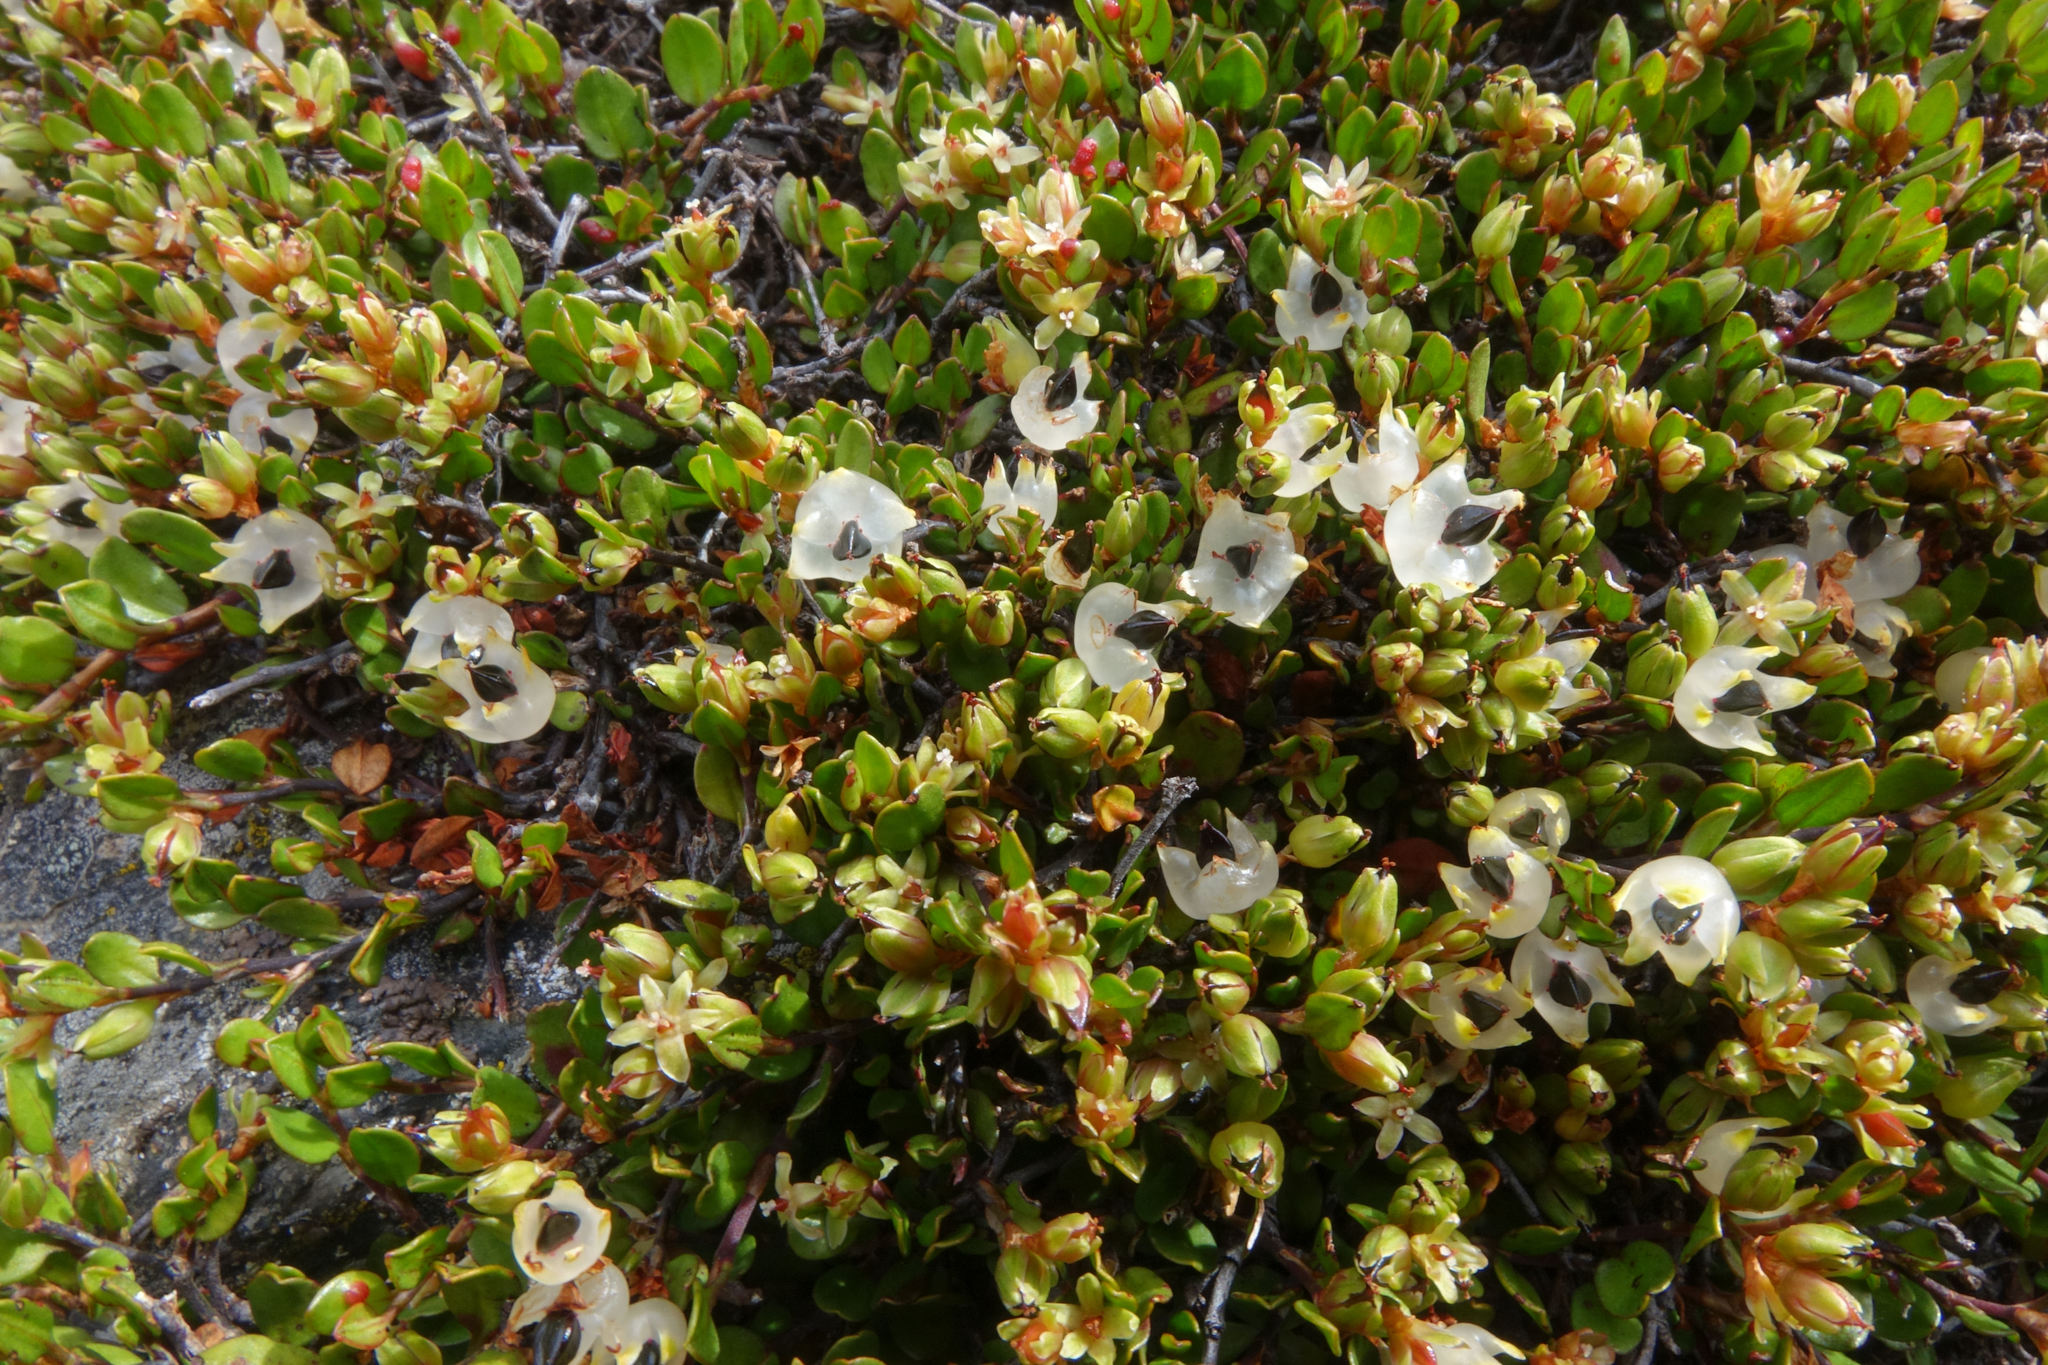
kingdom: Plantae
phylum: Tracheophyta
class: Magnoliopsida
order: Caryophyllales
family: Polygonaceae
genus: Muehlenbeckia
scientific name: Muehlenbeckia axillaris
